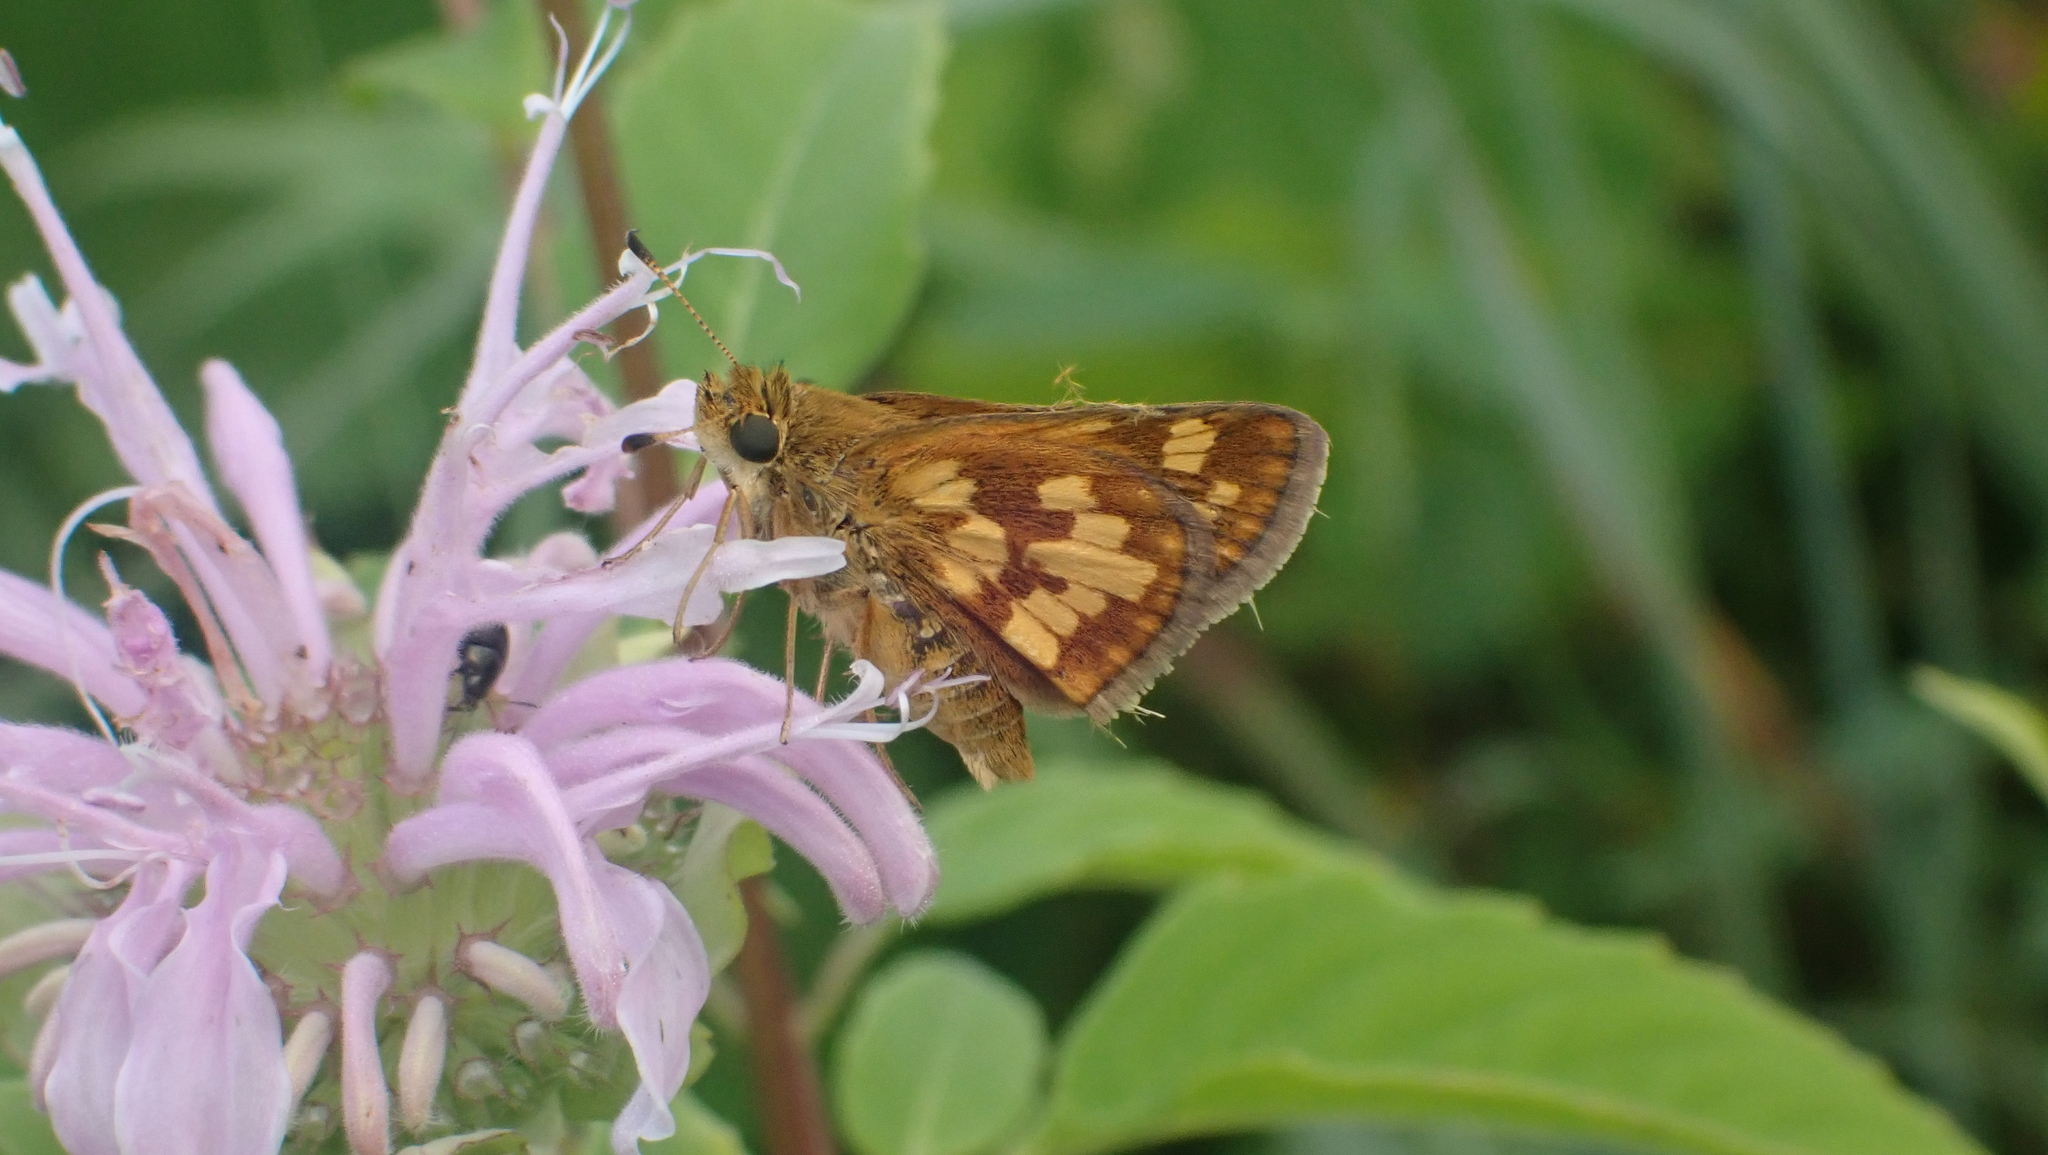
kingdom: Animalia
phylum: Arthropoda
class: Insecta
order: Lepidoptera
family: Hesperiidae
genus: Polites
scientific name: Polites coras
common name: Peck's skipper
